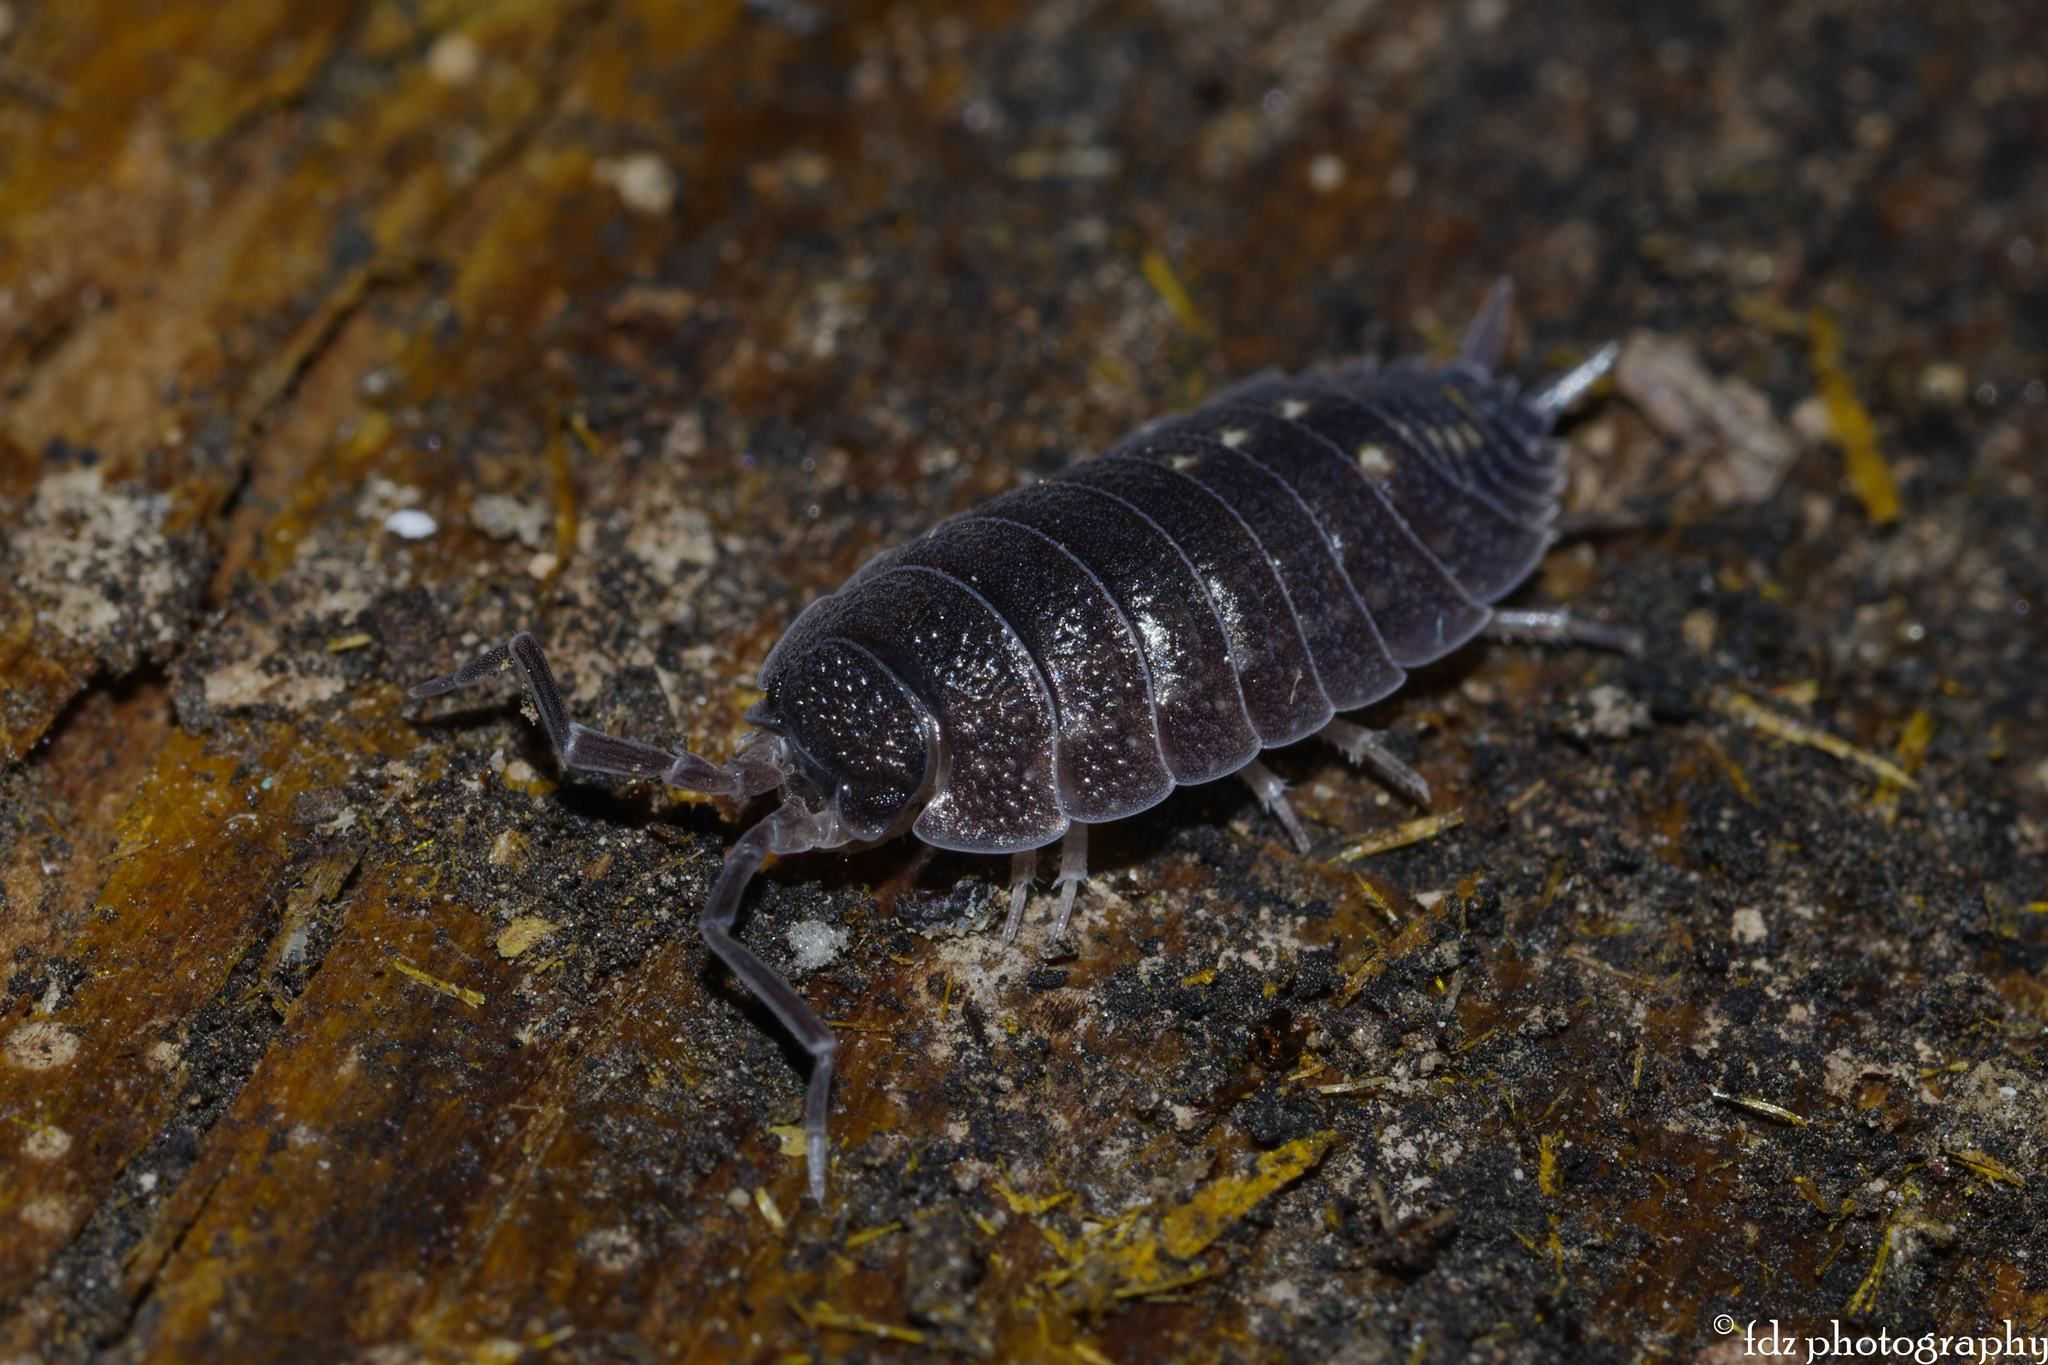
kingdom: Animalia
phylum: Arthropoda
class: Malacostraca
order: Isopoda
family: Porcellionidae
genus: Porcellio
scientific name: Porcellio ornatus
